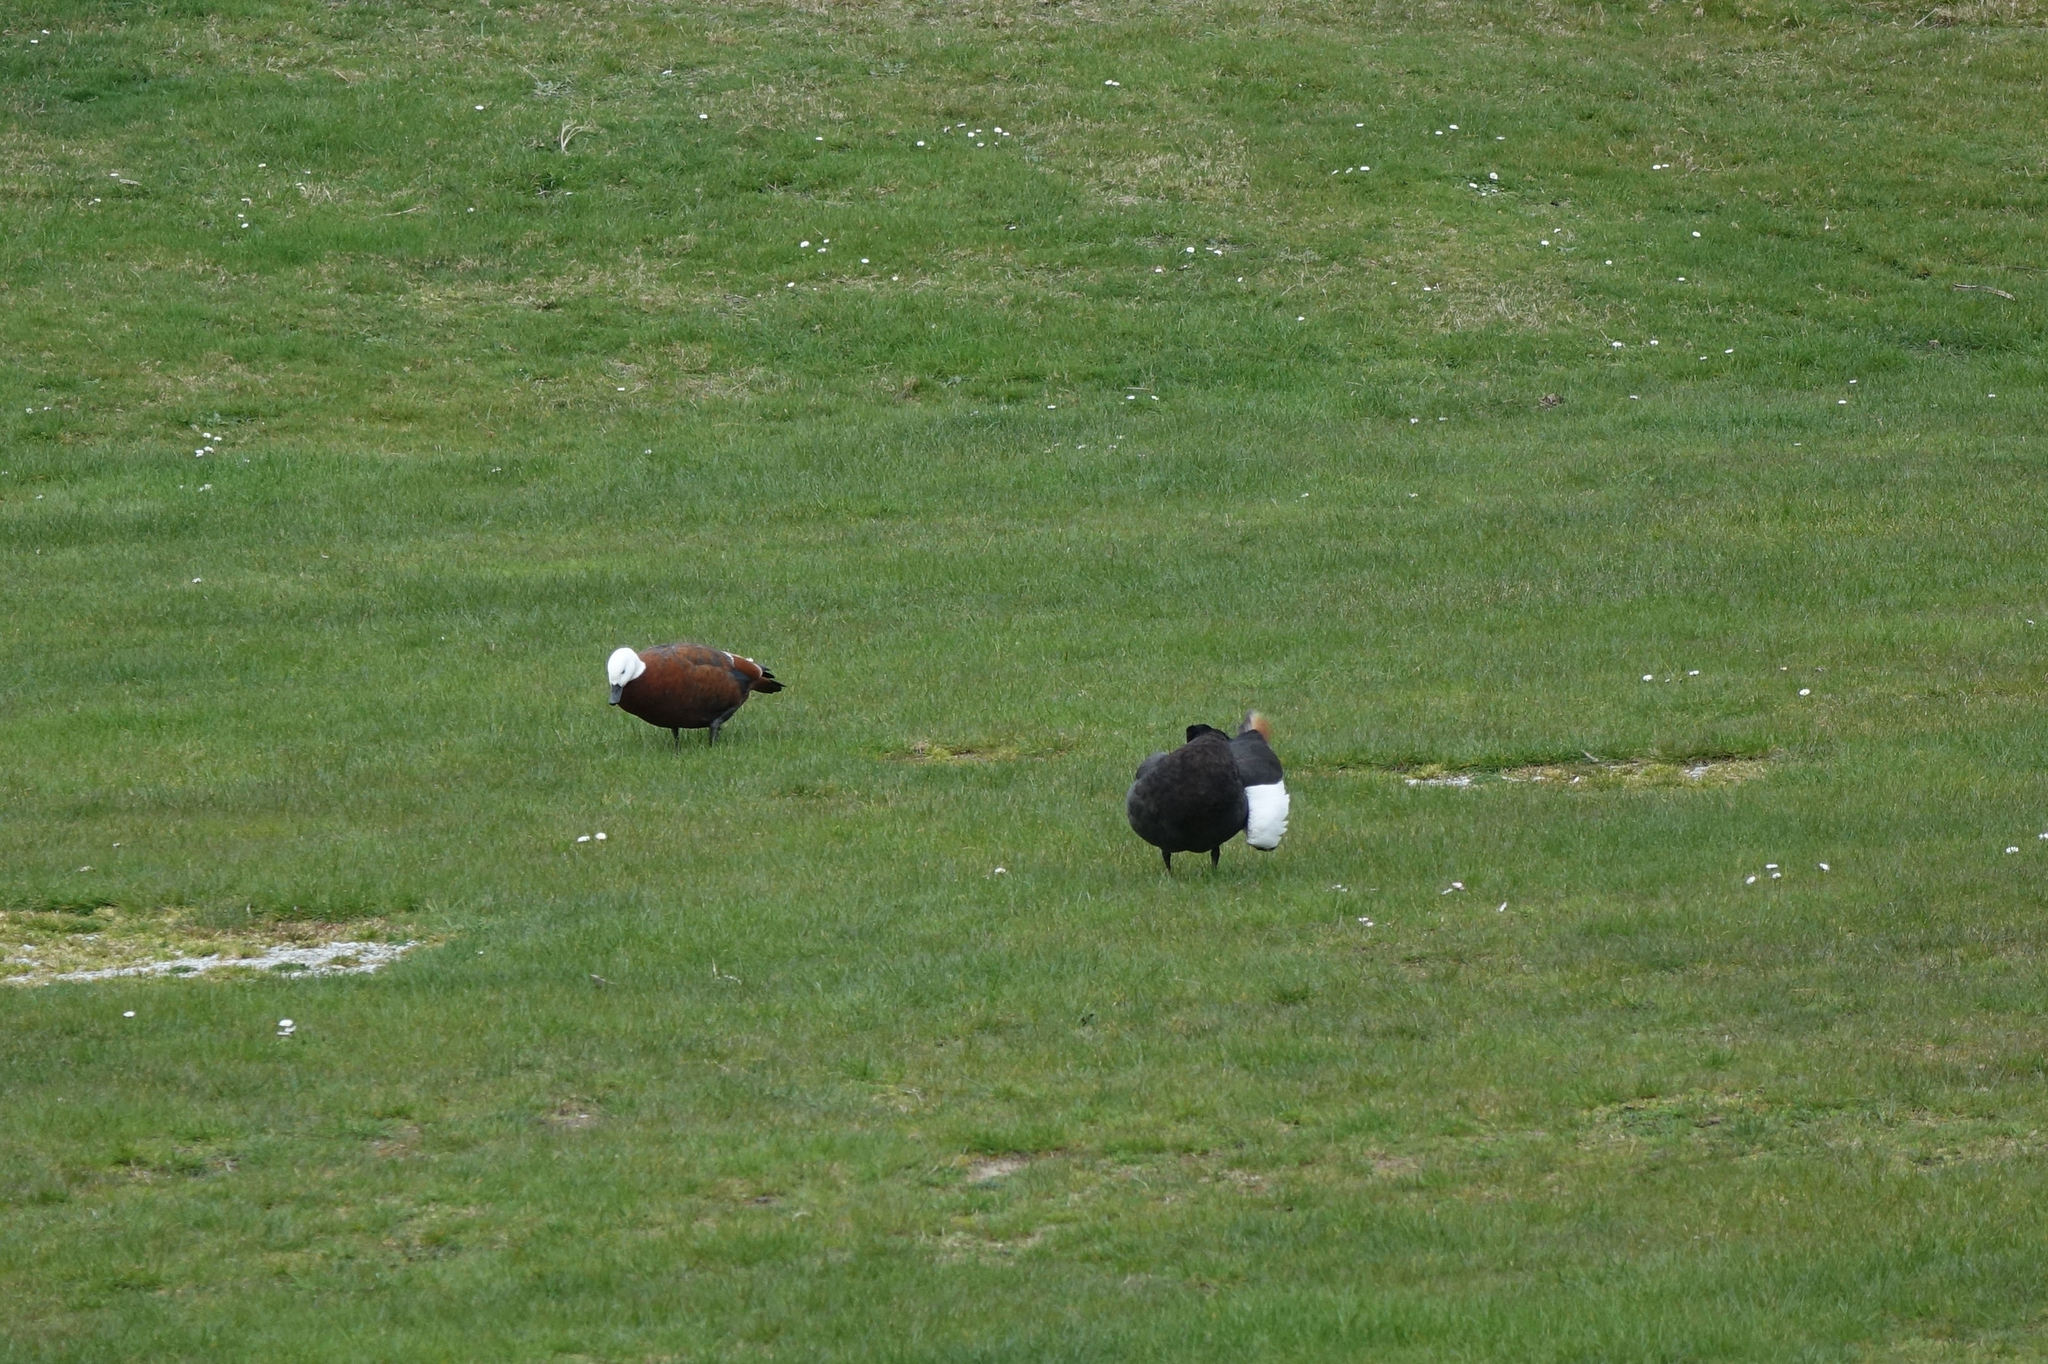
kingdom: Animalia
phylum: Chordata
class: Aves
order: Anseriformes
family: Anatidae
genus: Tadorna
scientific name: Tadorna variegata
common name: Paradise shelduck
